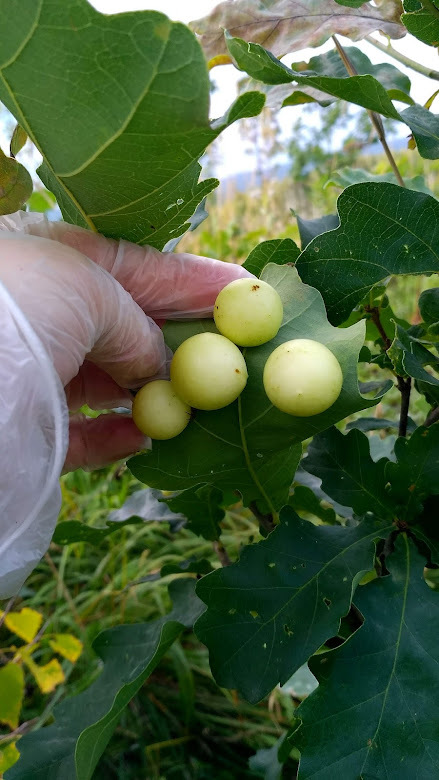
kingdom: Animalia
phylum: Arthropoda
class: Insecta
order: Hymenoptera
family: Cynipidae
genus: Cynips
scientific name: Cynips quercusfolii
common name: Cherry gall
